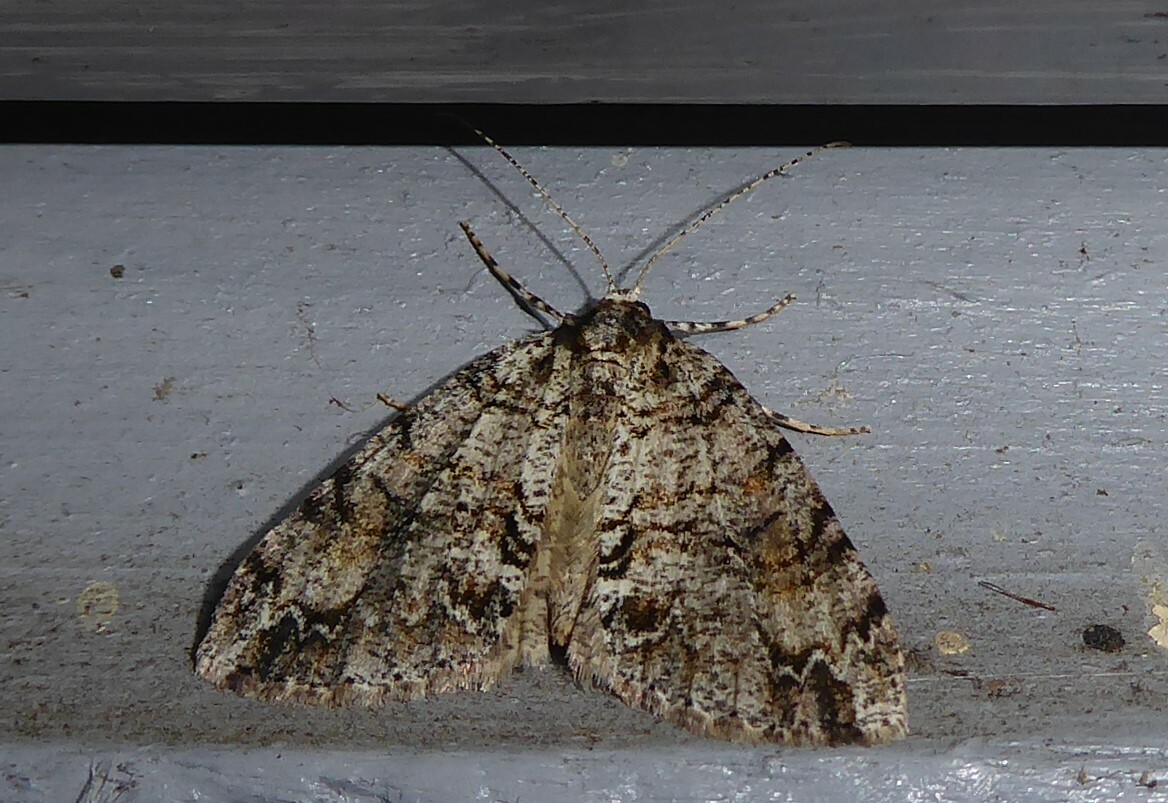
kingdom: Animalia
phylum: Arthropoda
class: Insecta
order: Lepidoptera
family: Geometridae
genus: Pseudocoremia
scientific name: Pseudocoremia suavis
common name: Common forest looper
